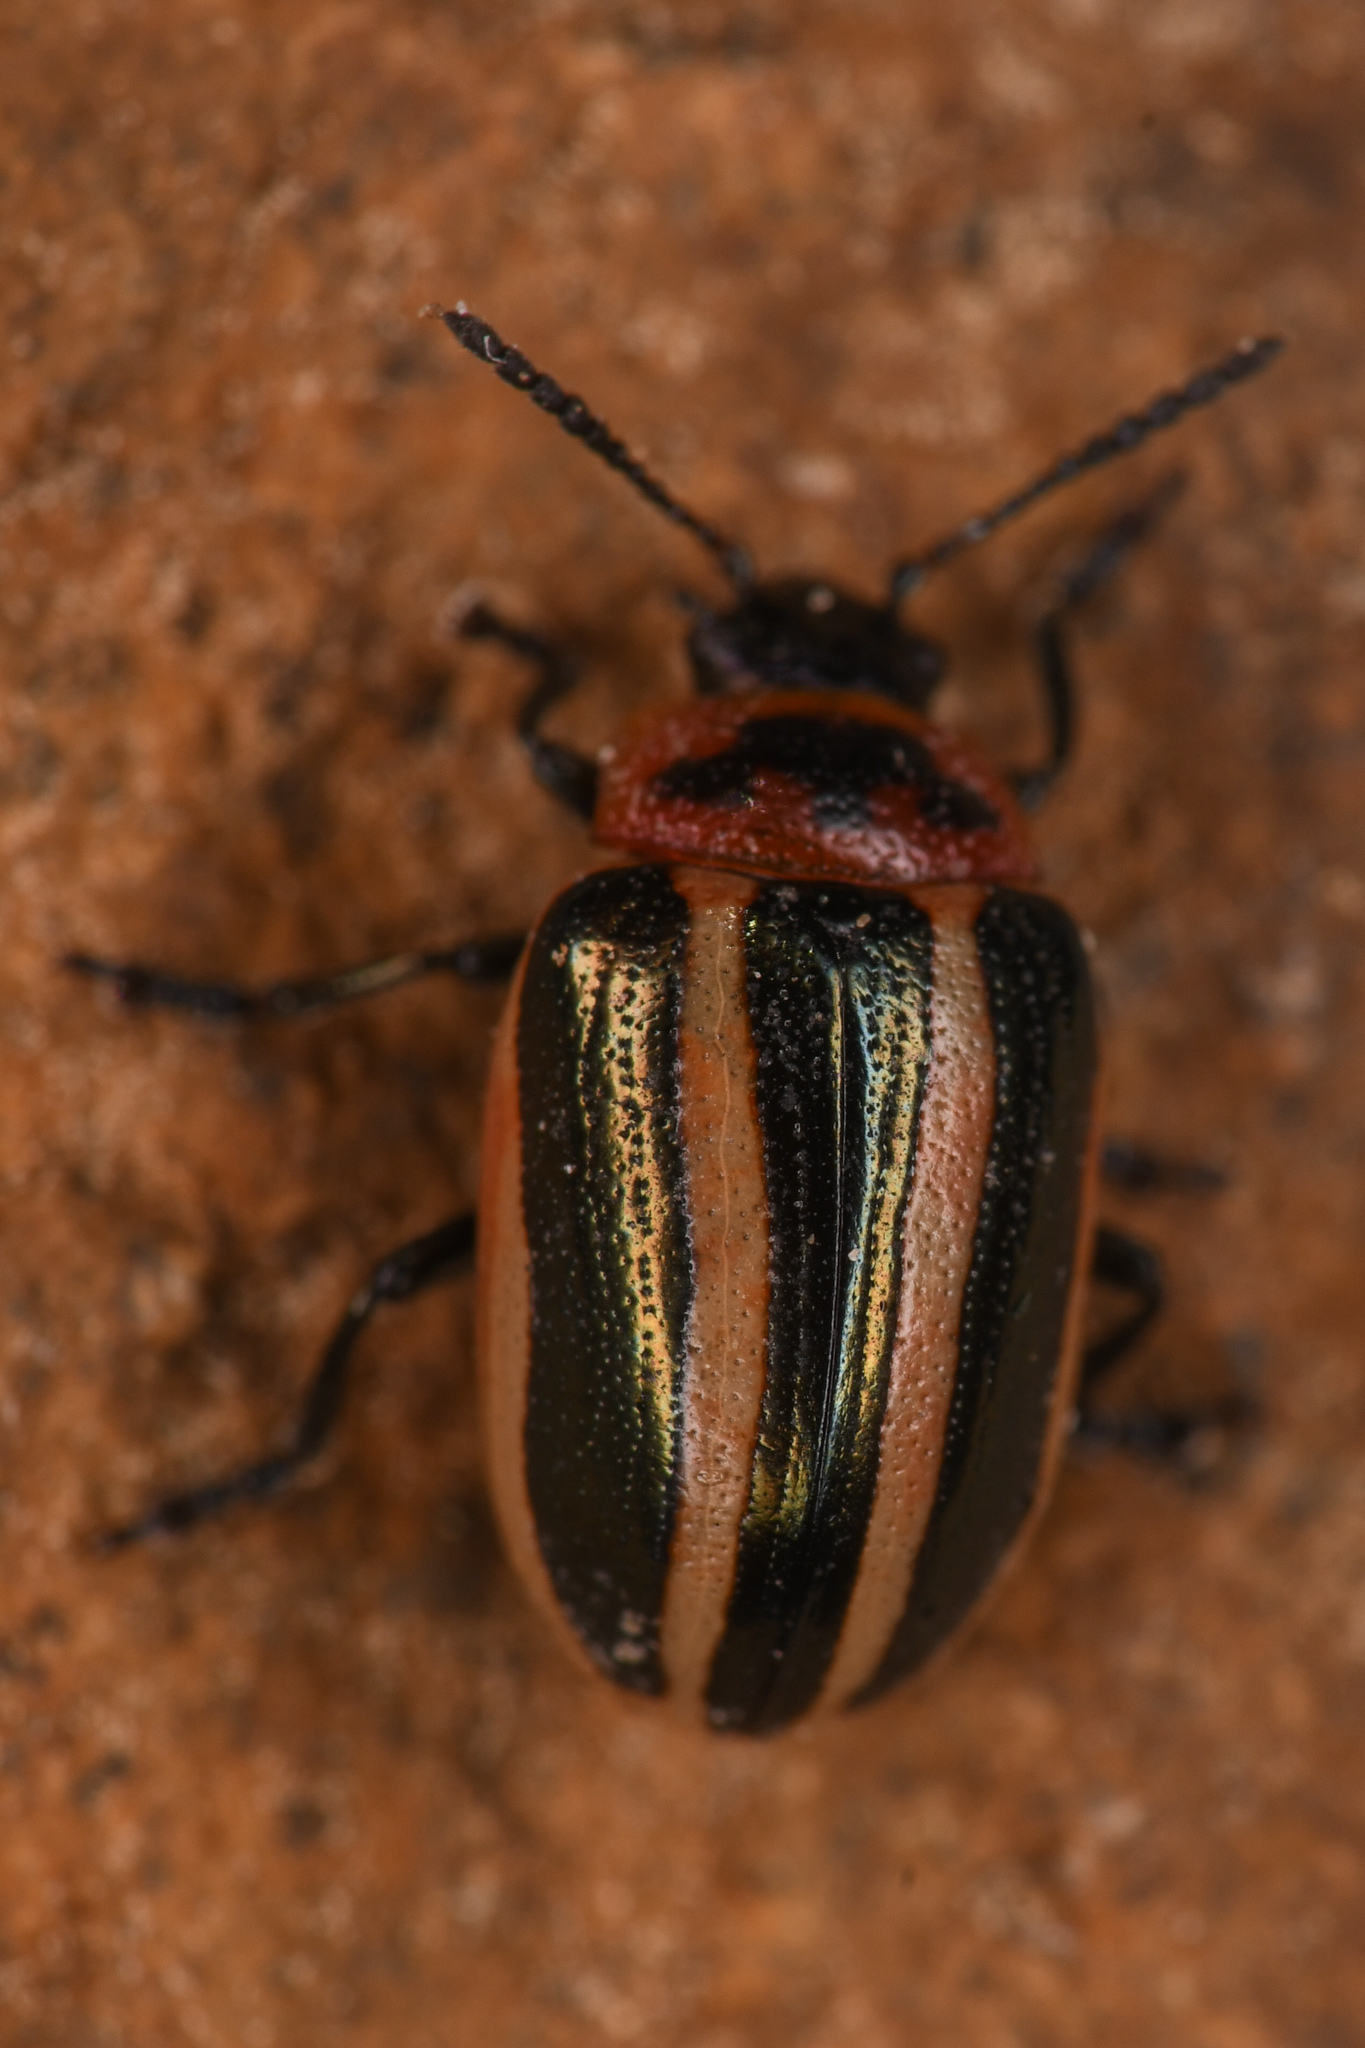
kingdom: Animalia
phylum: Arthropoda
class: Insecta
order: Coleoptera
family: Chrysomelidae
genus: Calligrapha
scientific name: Calligrapha californica
